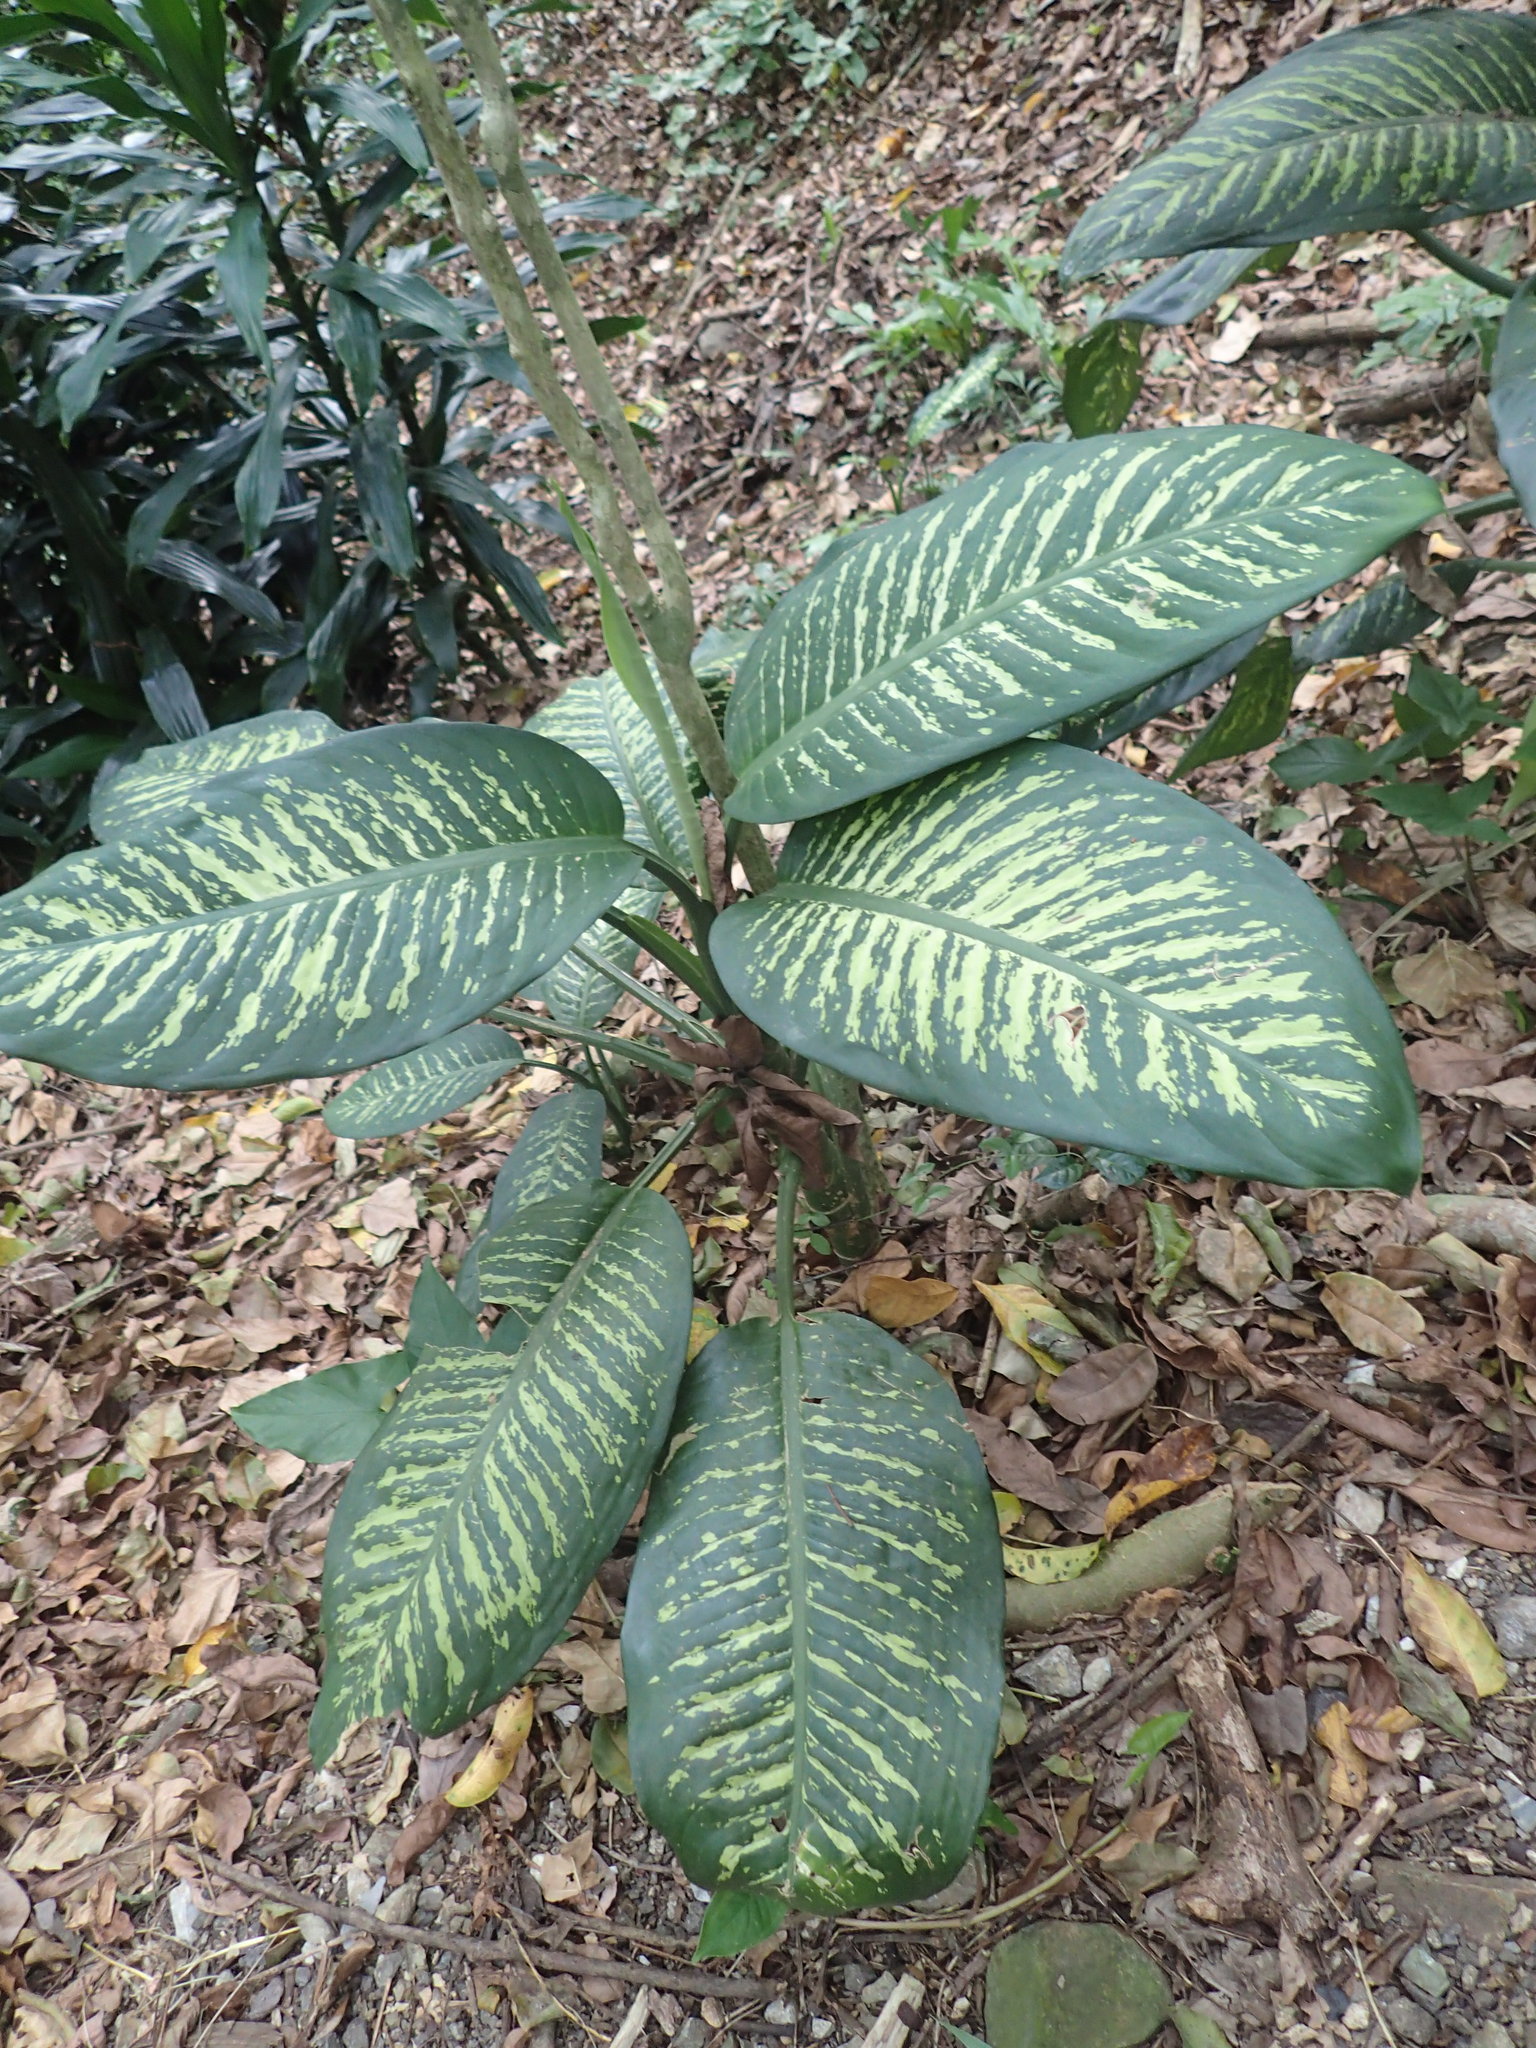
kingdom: Plantae
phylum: Tracheophyta
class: Liliopsida
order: Alismatales
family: Araceae
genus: Dieffenbachia
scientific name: Dieffenbachia seguine
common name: Dumbcane
